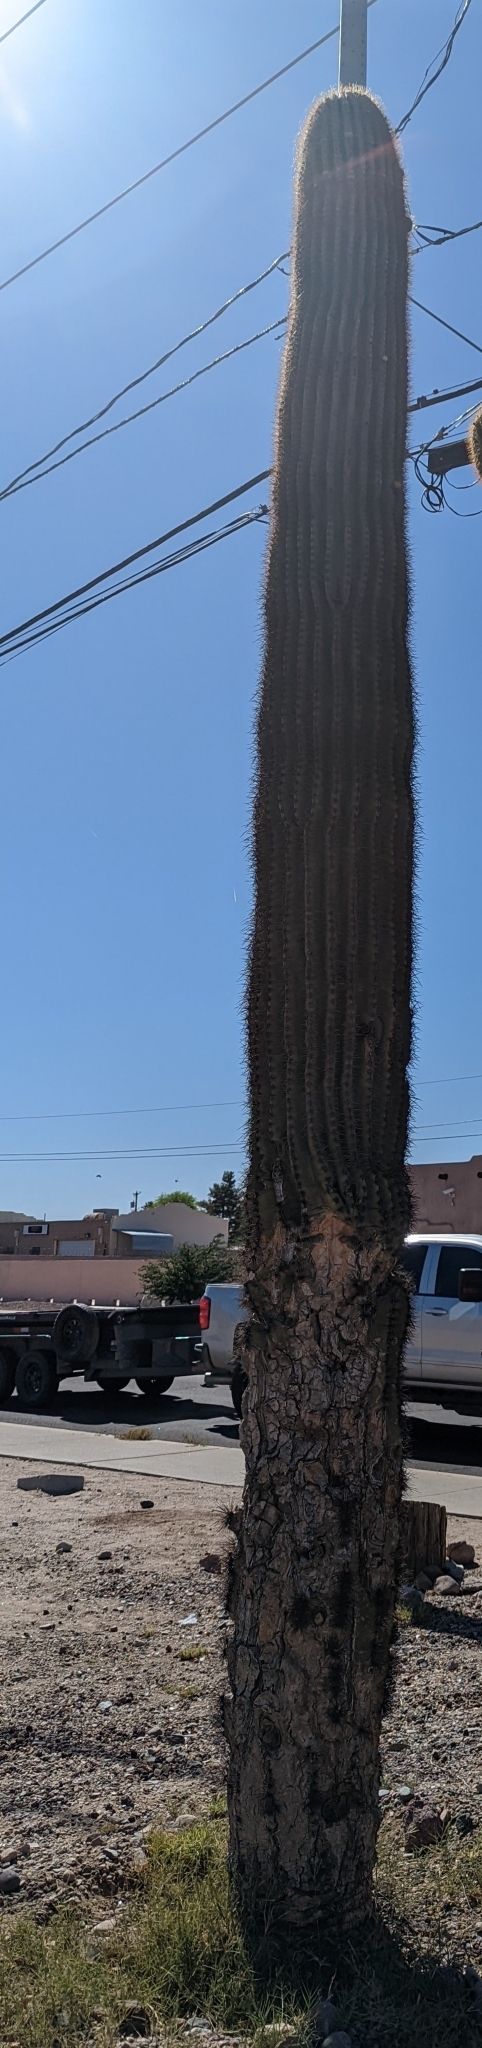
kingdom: Plantae
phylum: Tracheophyta
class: Magnoliopsida
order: Caryophyllales
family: Cactaceae
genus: Carnegiea
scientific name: Carnegiea gigantea
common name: Saguaro
